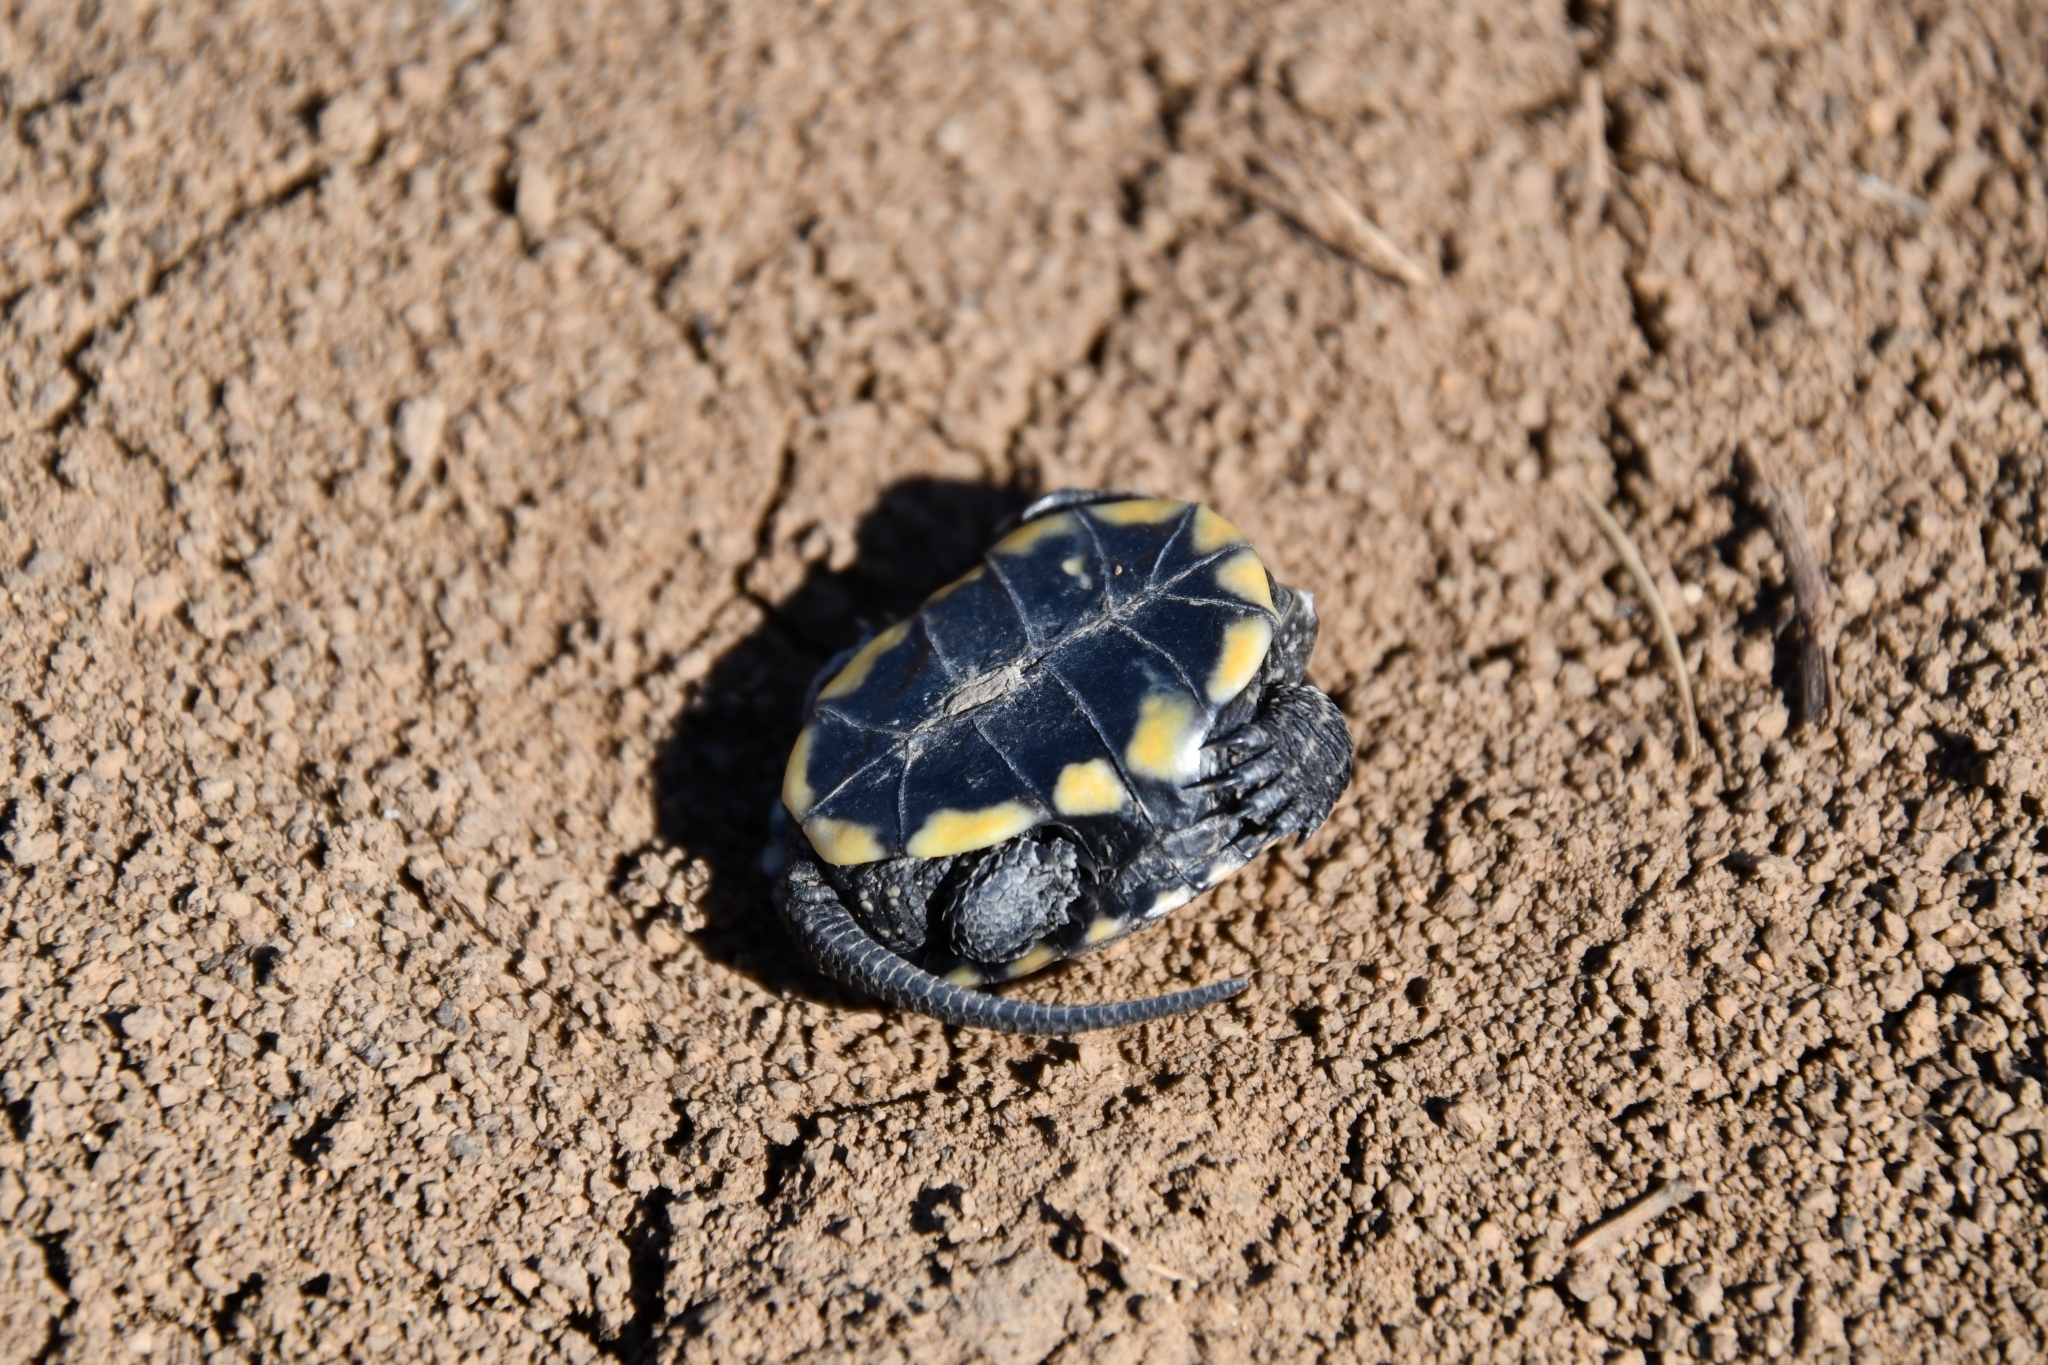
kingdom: Animalia
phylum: Chordata
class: Testudines
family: Emydidae
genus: Emys
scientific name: Emys orbicularis
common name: European pond turtle
